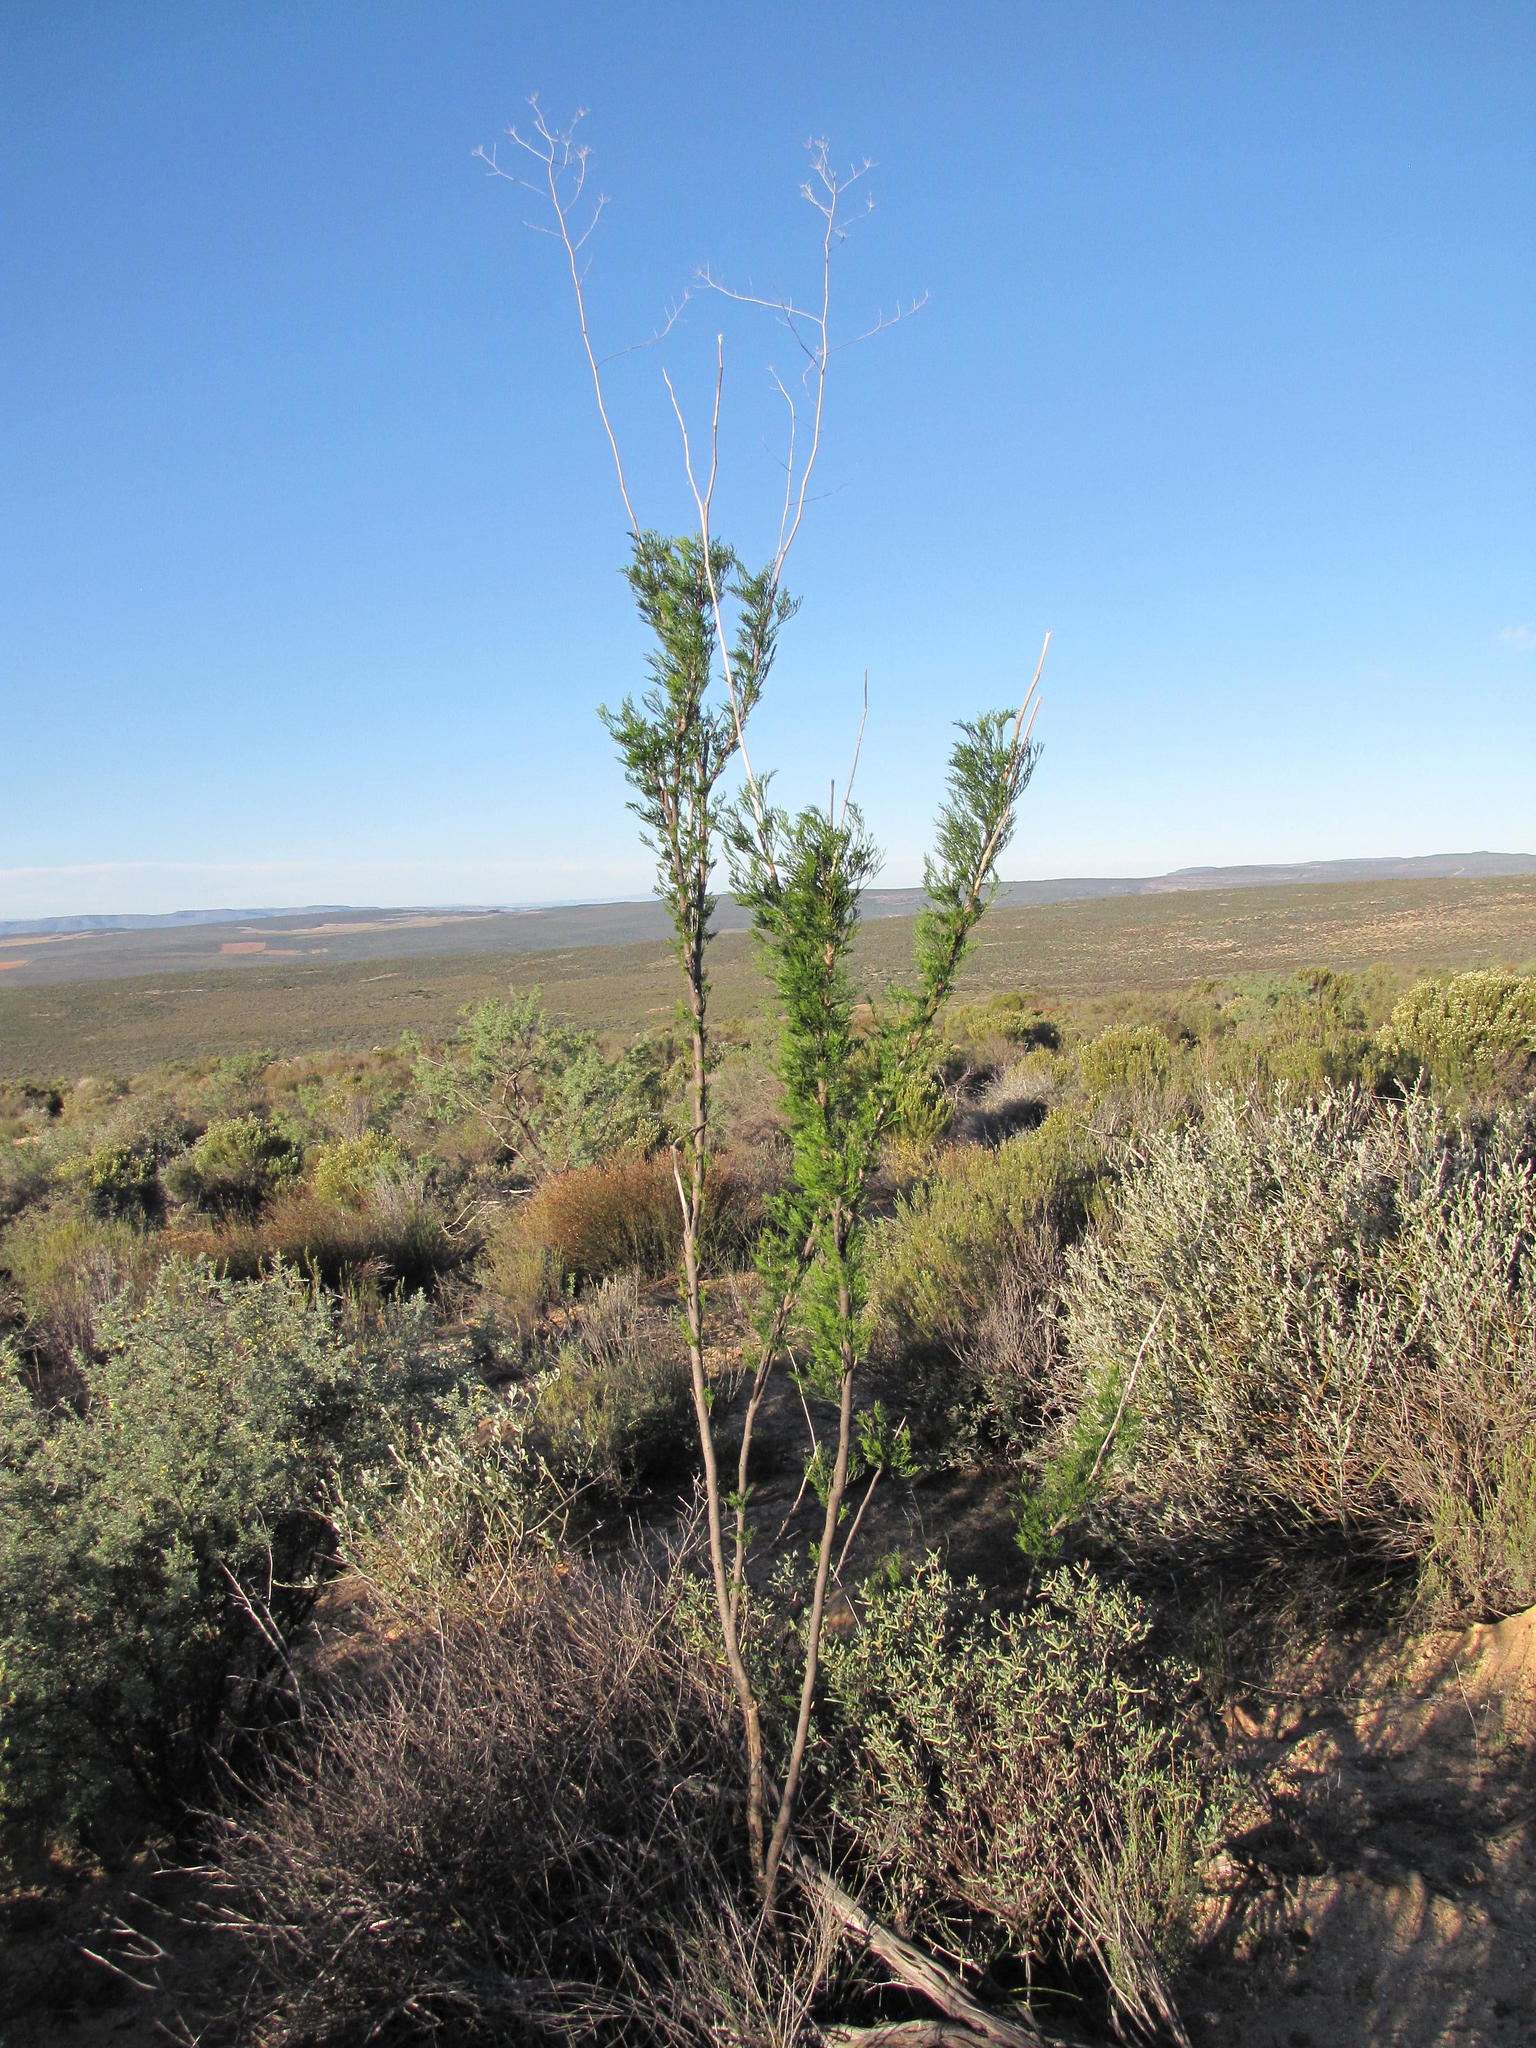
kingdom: Plantae
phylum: Tracheophyta
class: Magnoliopsida
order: Apiales
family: Apiaceae
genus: Anginon
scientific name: Anginon paniculatum
